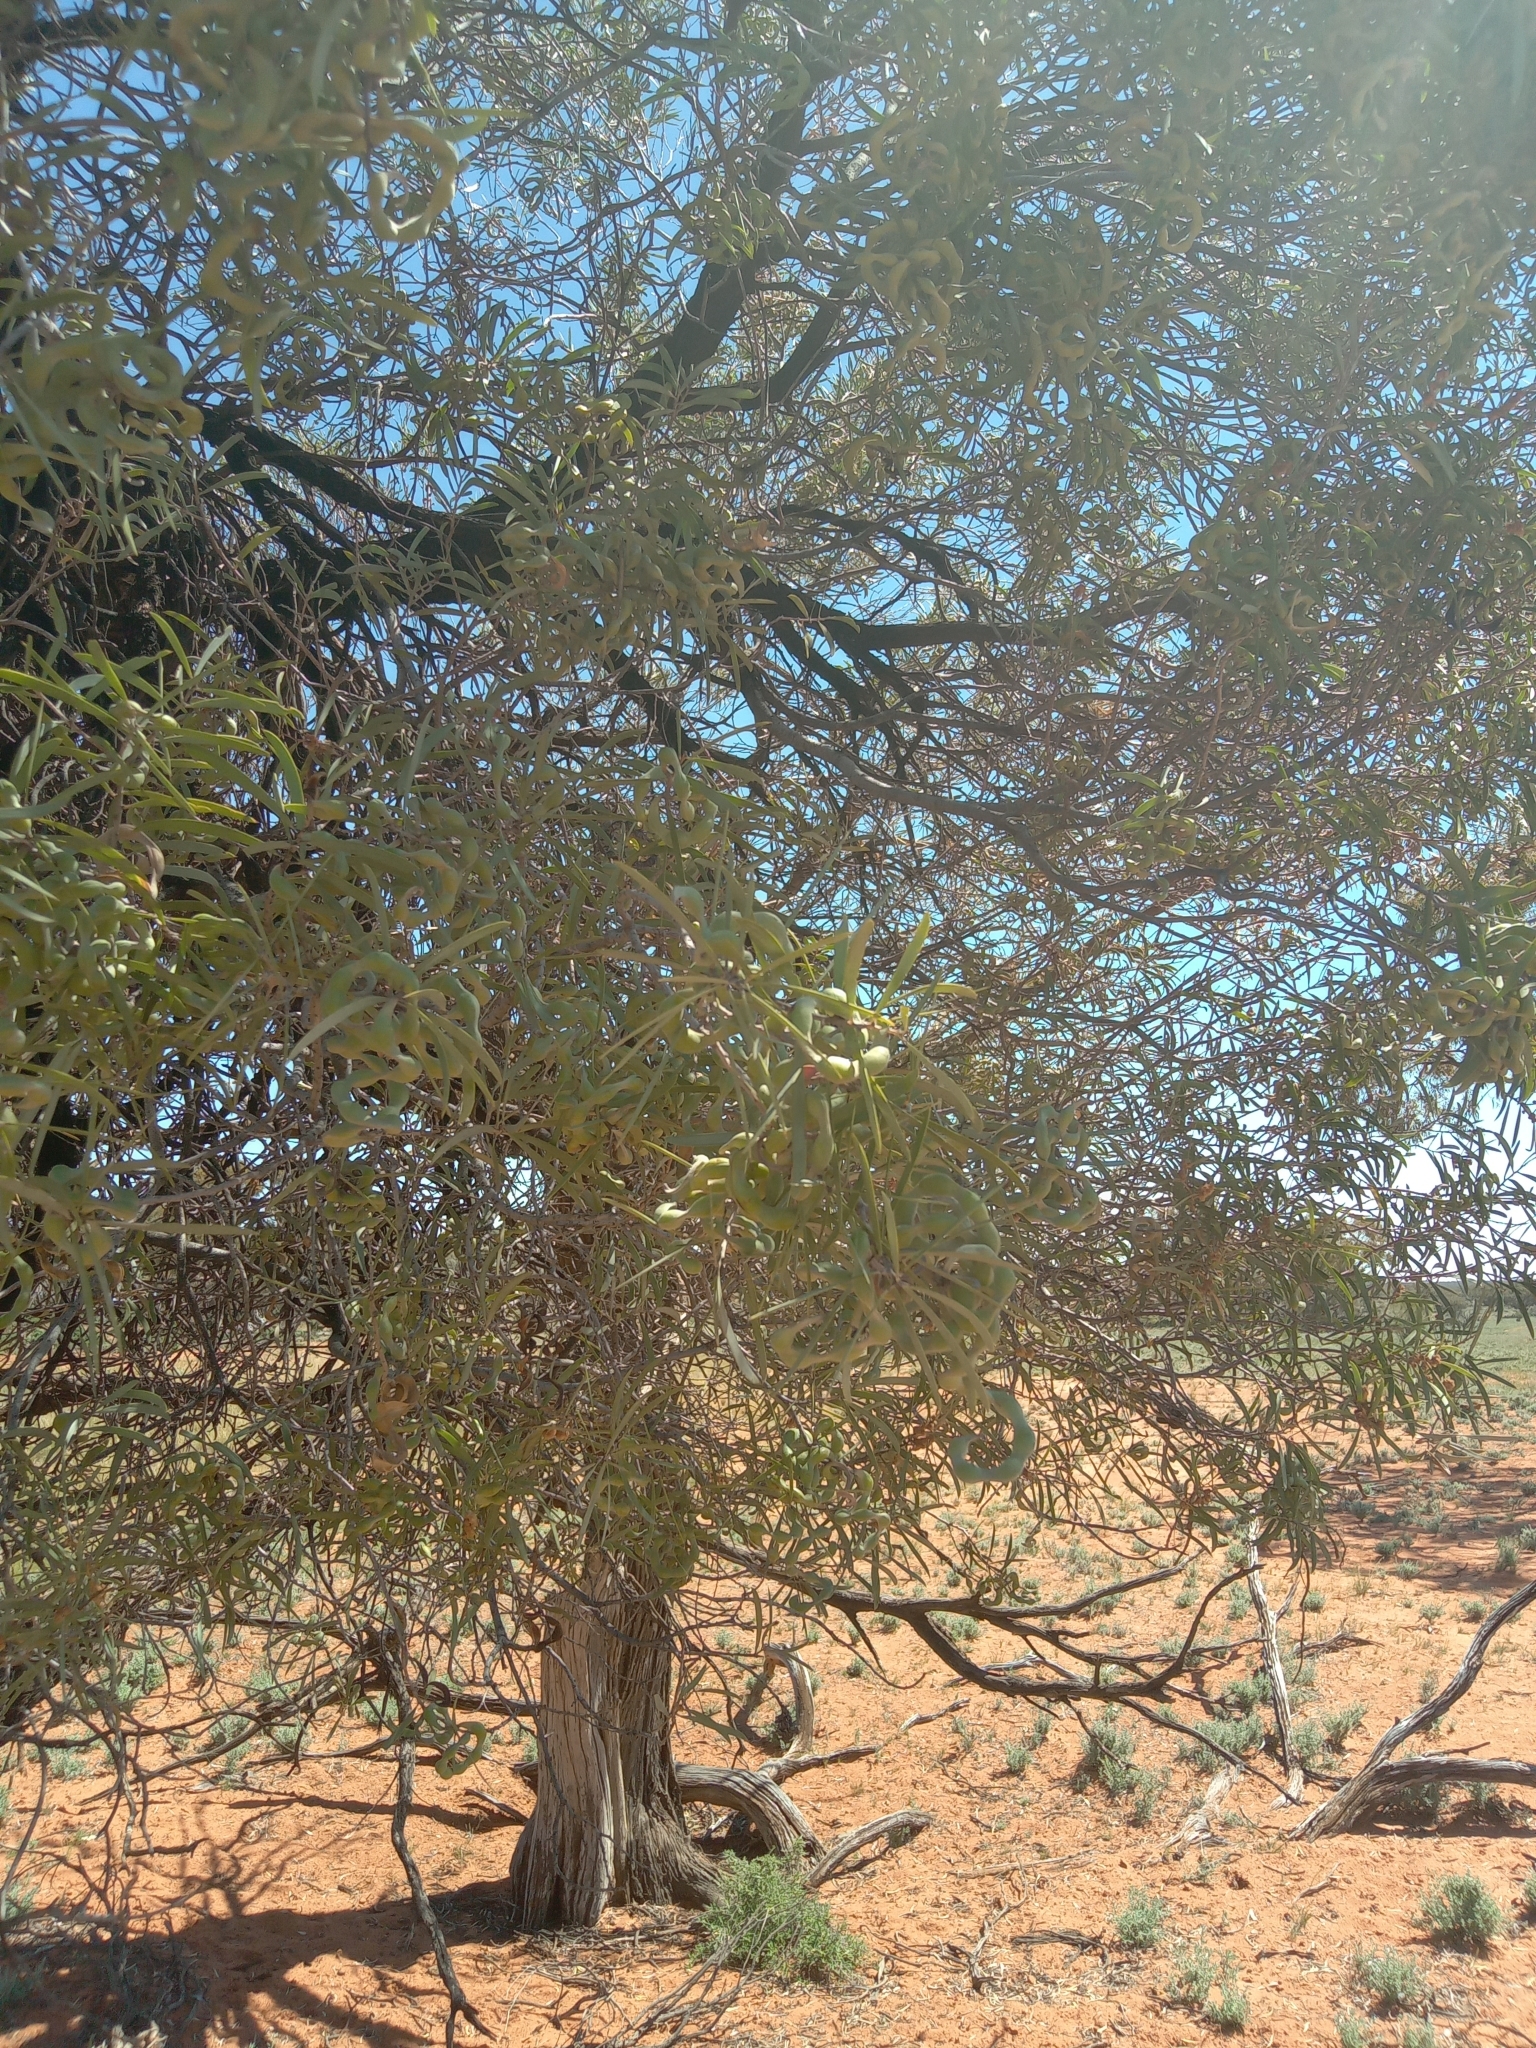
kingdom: Plantae
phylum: Tracheophyta
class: Magnoliopsida
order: Fabales
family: Fabaceae
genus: Acacia
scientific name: Acacia oswaldii
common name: Umbrella wattle
